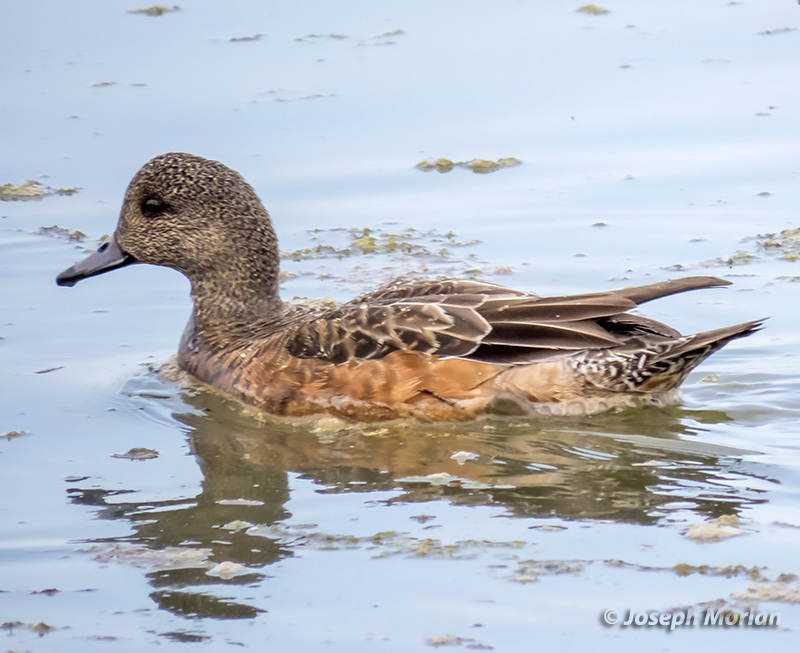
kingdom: Animalia
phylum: Chordata
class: Aves
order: Anseriformes
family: Anatidae
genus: Mareca
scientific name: Mareca americana
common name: American wigeon
